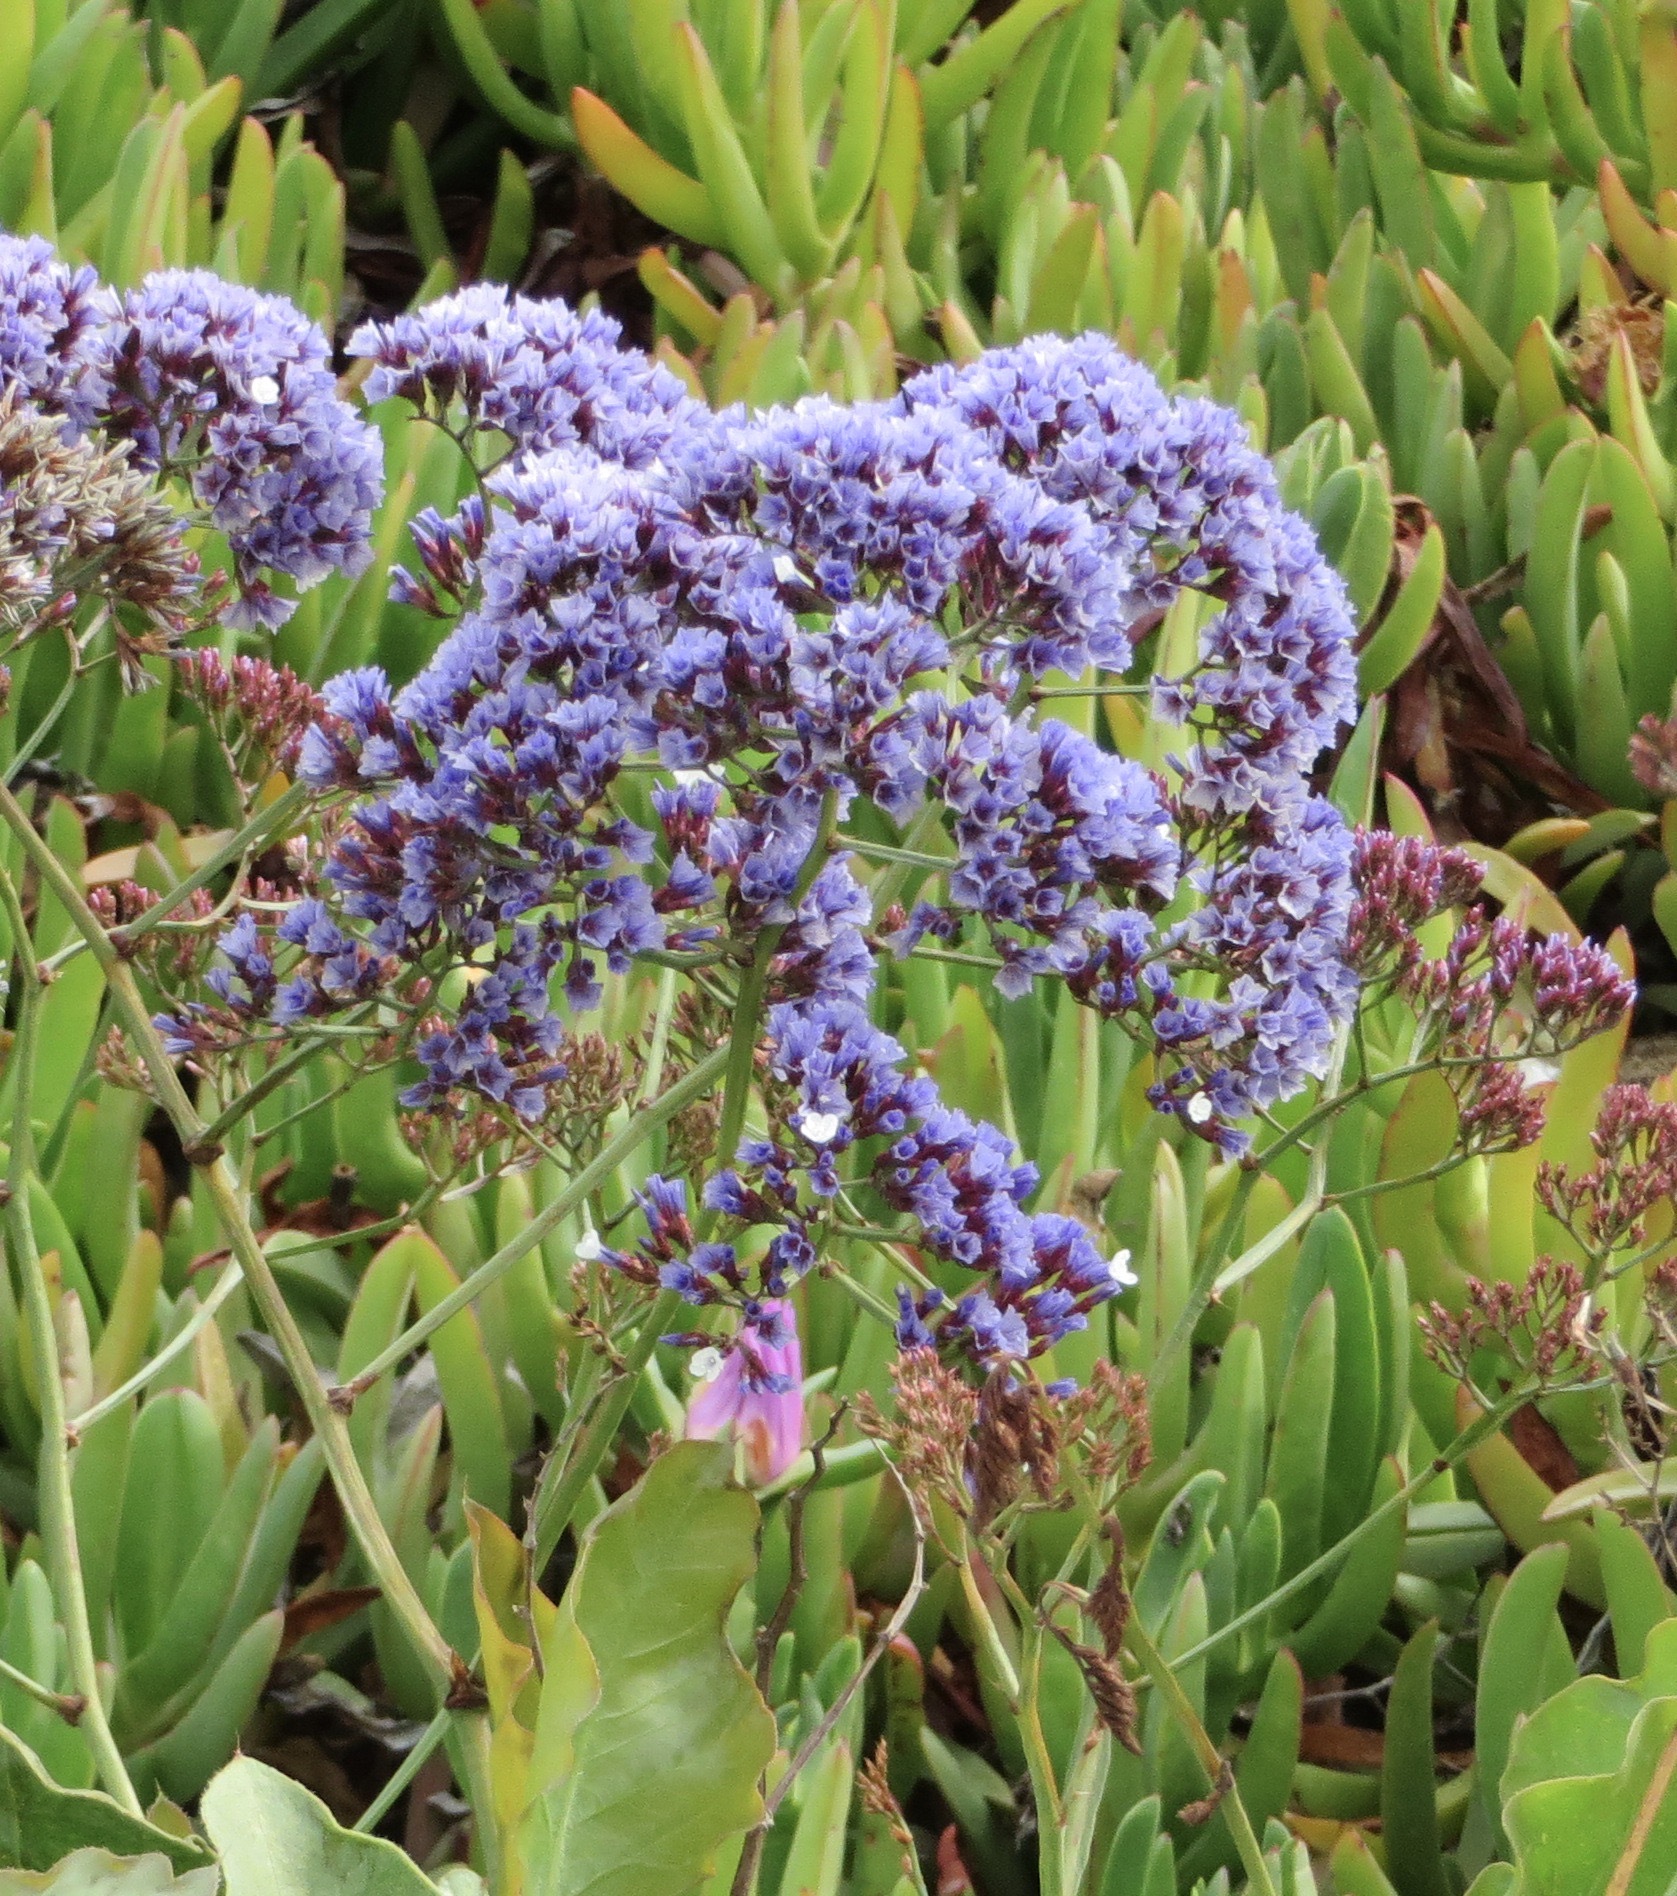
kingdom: Plantae
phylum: Tracheophyta
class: Magnoliopsida
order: Caryophyllales
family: Plumbaginaceae
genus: Limonium
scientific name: Limonium perezii
